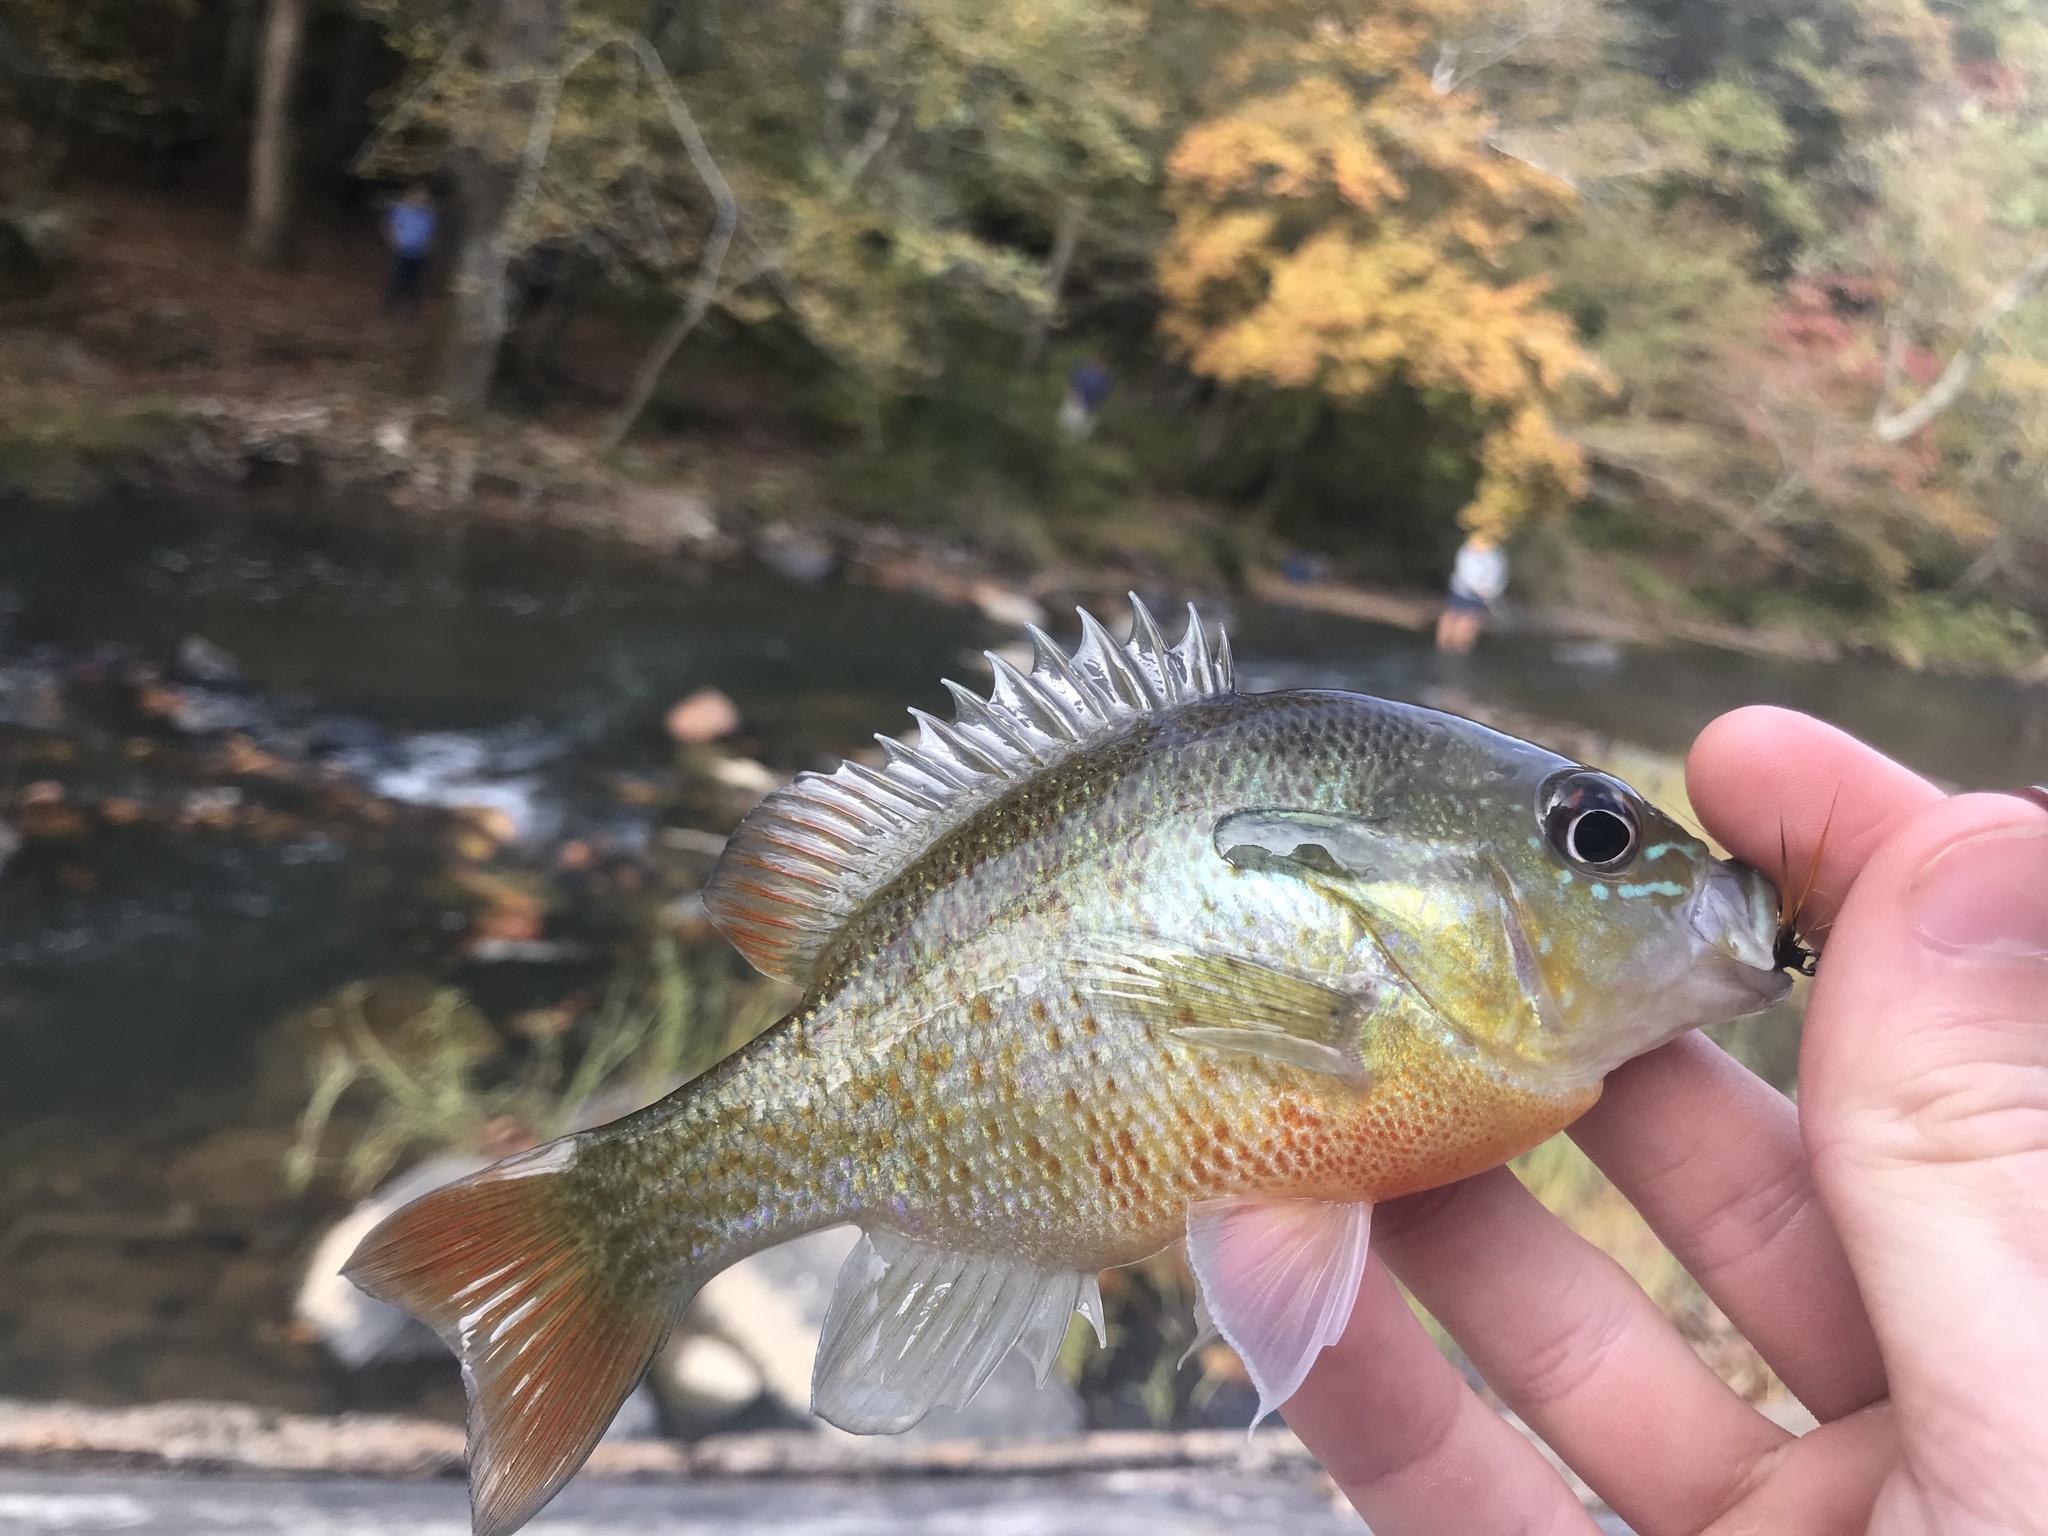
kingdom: Animalia
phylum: Chordata
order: Perciformes
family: Centrarchidae
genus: Lepomis
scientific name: Lepomis auritus
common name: Redbreast sunfish
